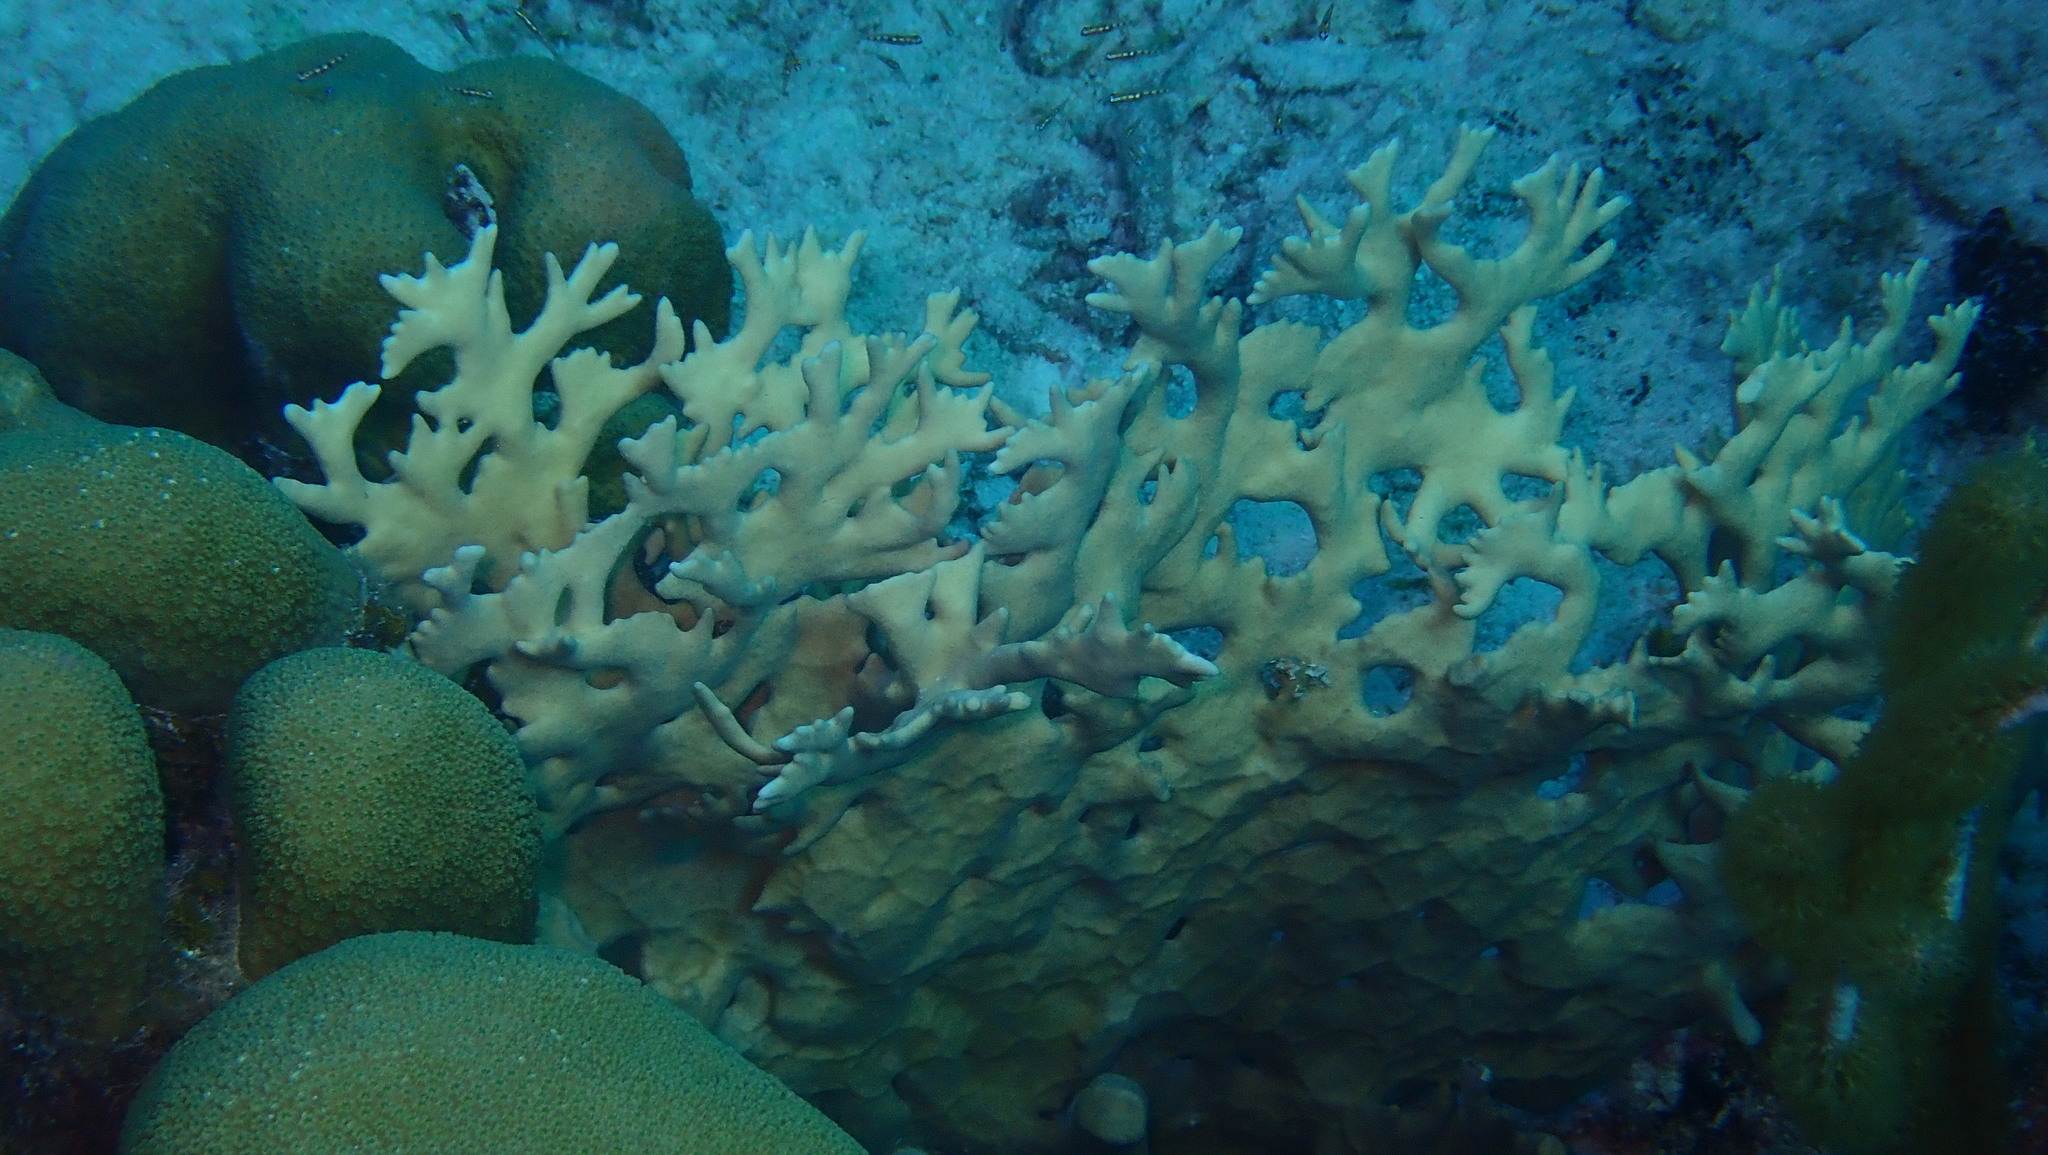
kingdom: Animalia
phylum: Cnidaria
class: Hydrozoa
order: Anthoathecata
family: Milleporidae
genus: Millepora
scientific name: Millepora alcicornis
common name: Branching fire coral
